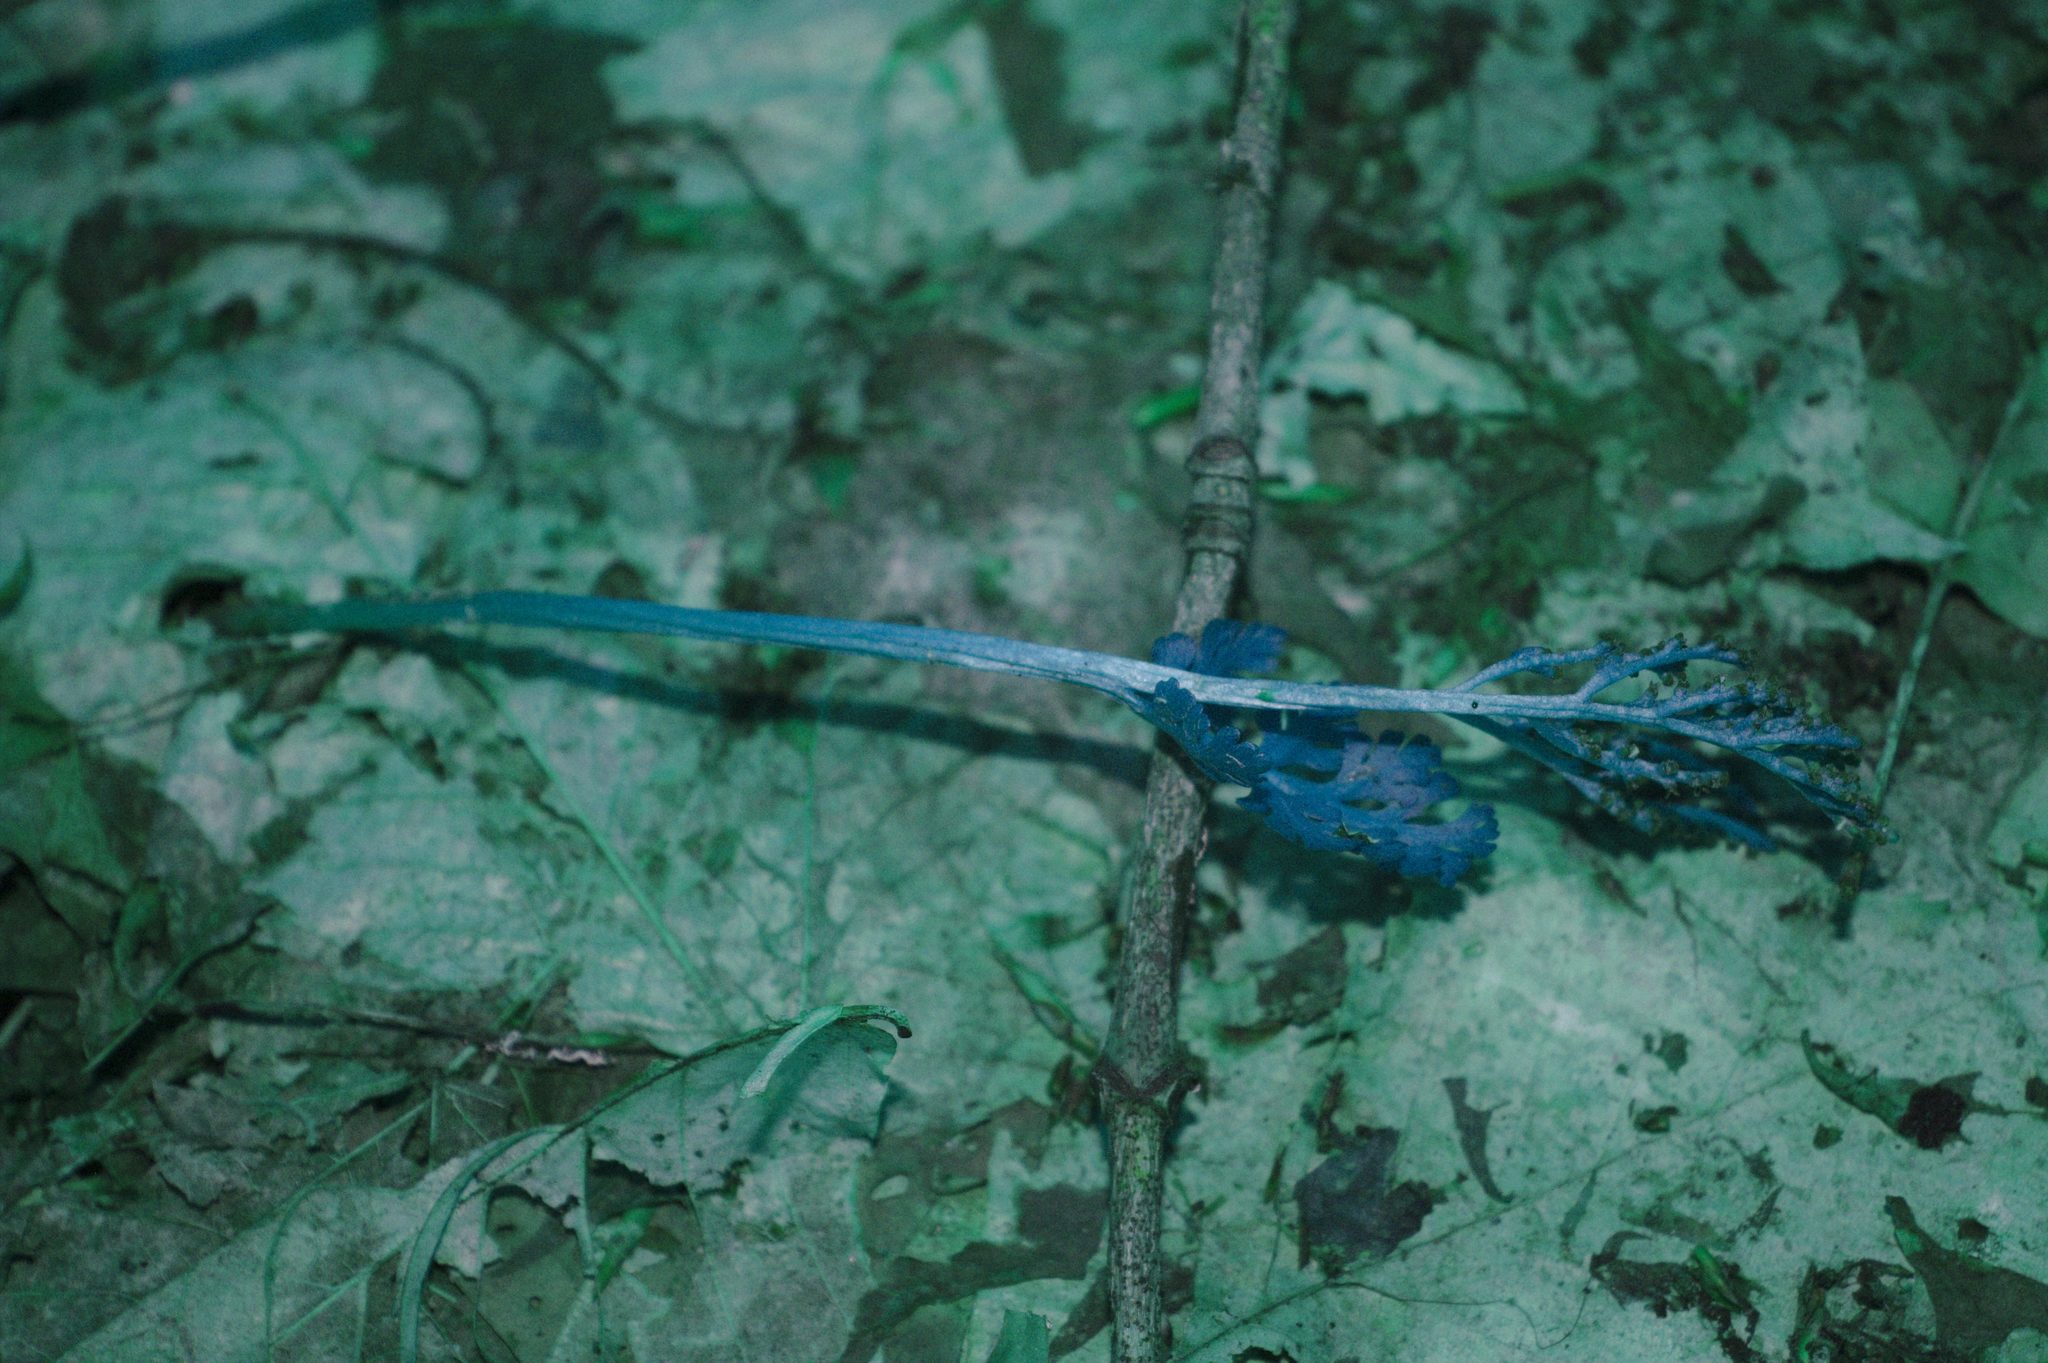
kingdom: Plantae
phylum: Tracheophyta
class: Polypodiopsida
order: Ophioglossales
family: Ophioglossaceae
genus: Botrychium
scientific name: Botrychium matricariifolium
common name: Branched moonwort
